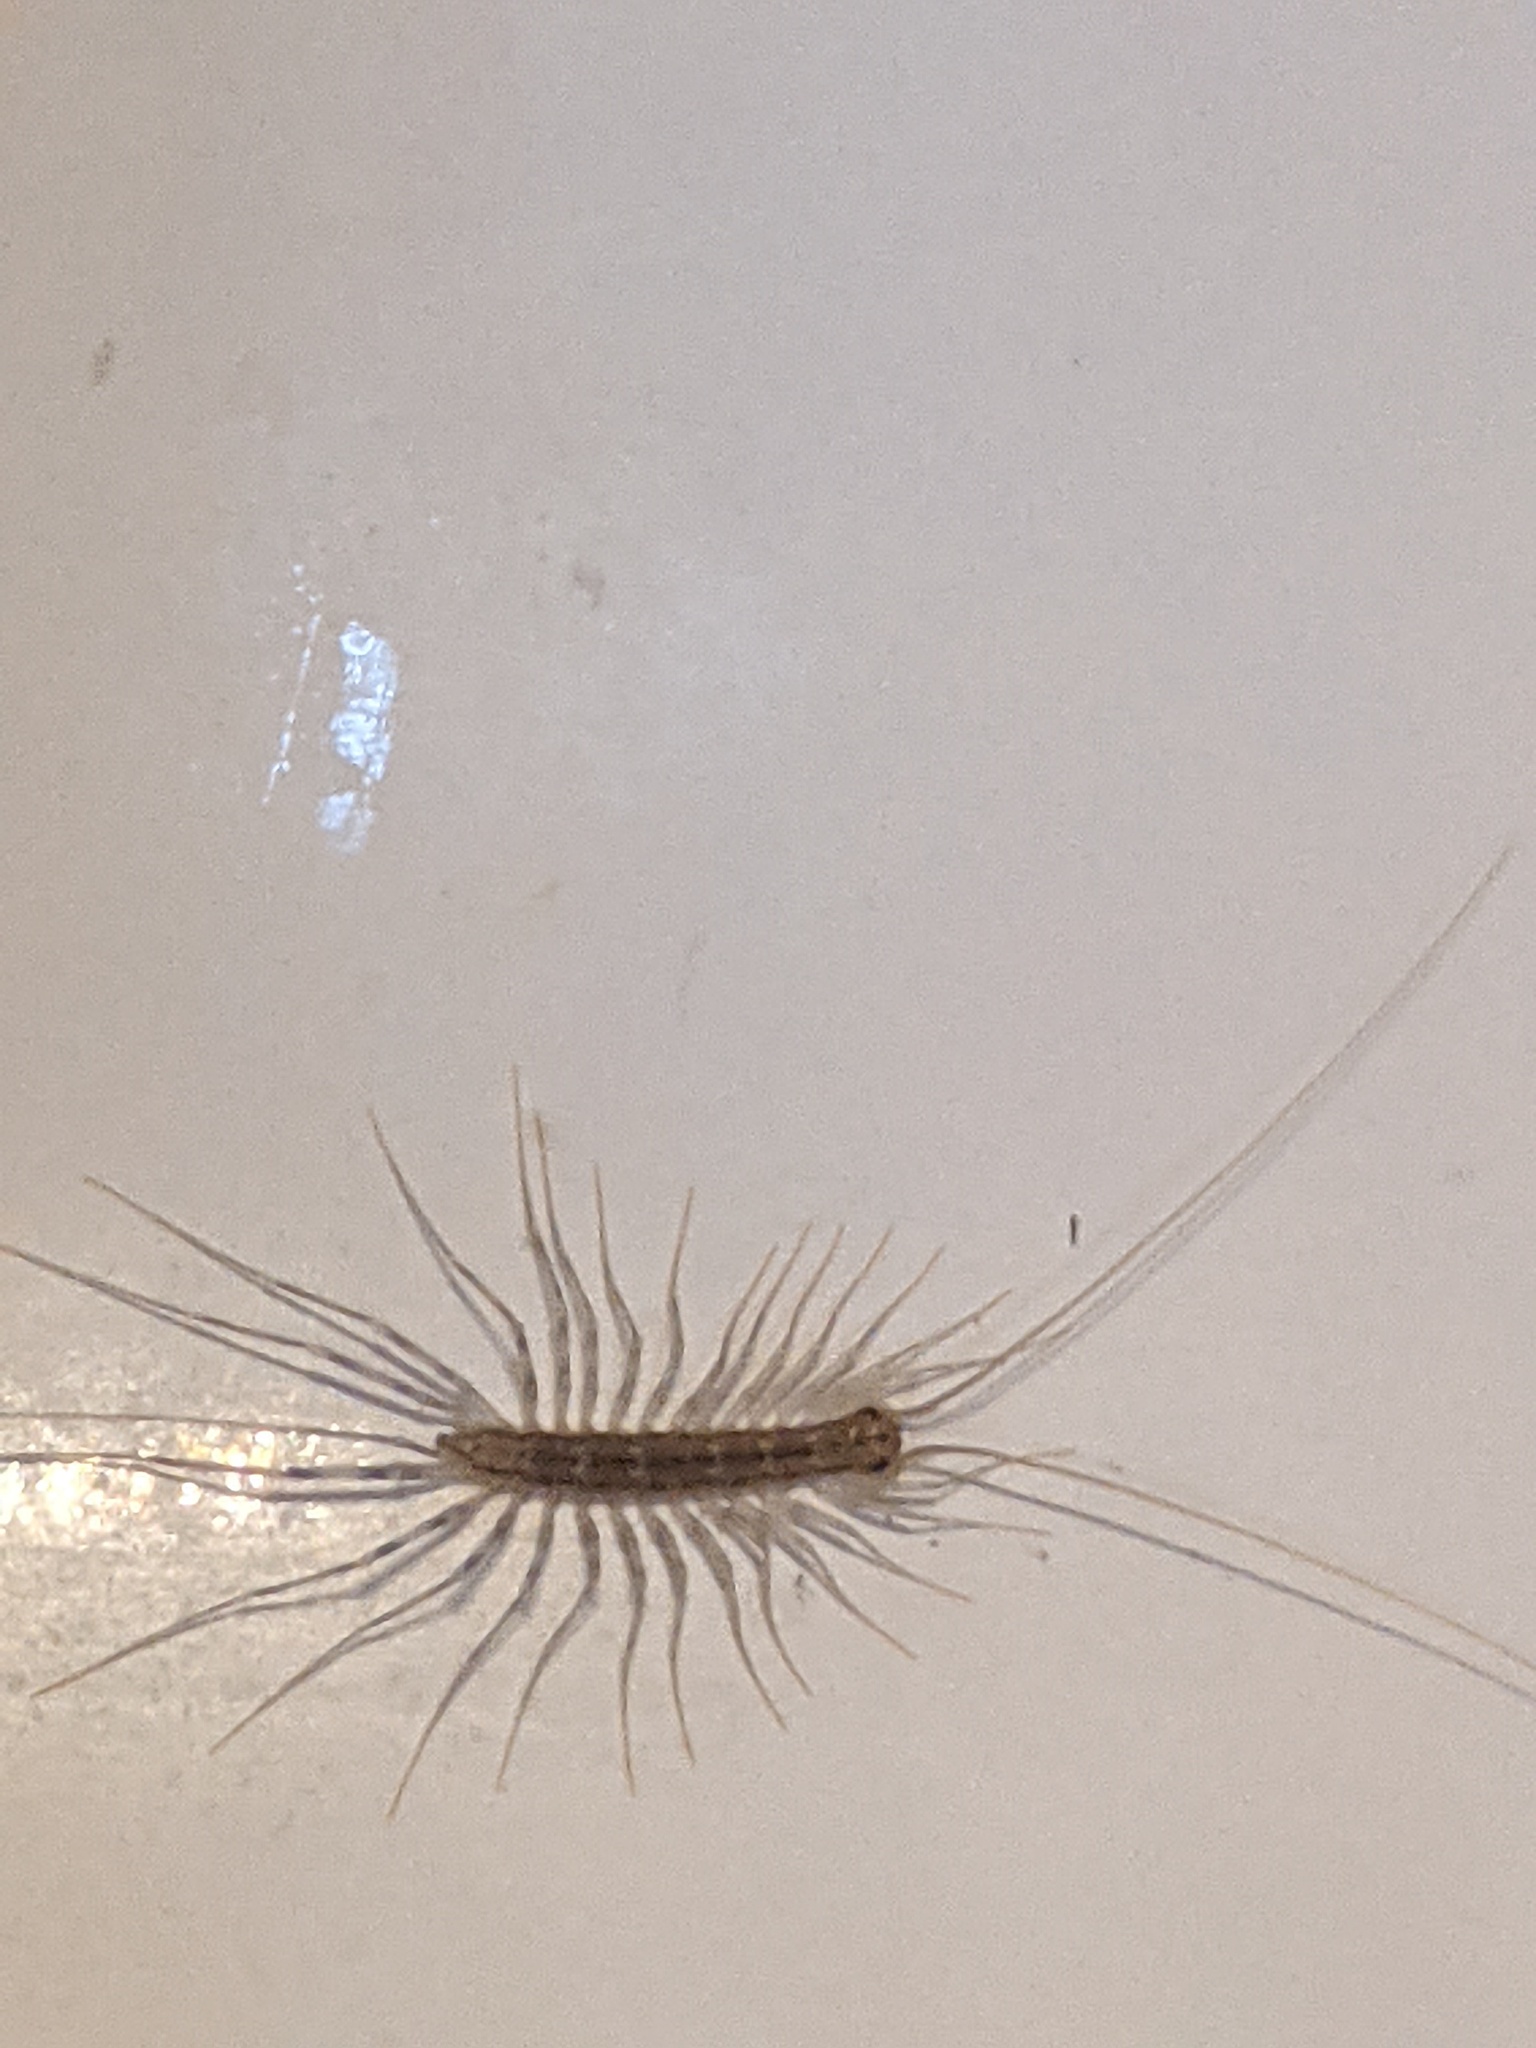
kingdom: Animalia
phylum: Arthropoda
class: Chilopoda
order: Scutigeromorpha
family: Scutigeridae
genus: Scutigera
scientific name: Scutigera coleoptrata
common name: House centipede
